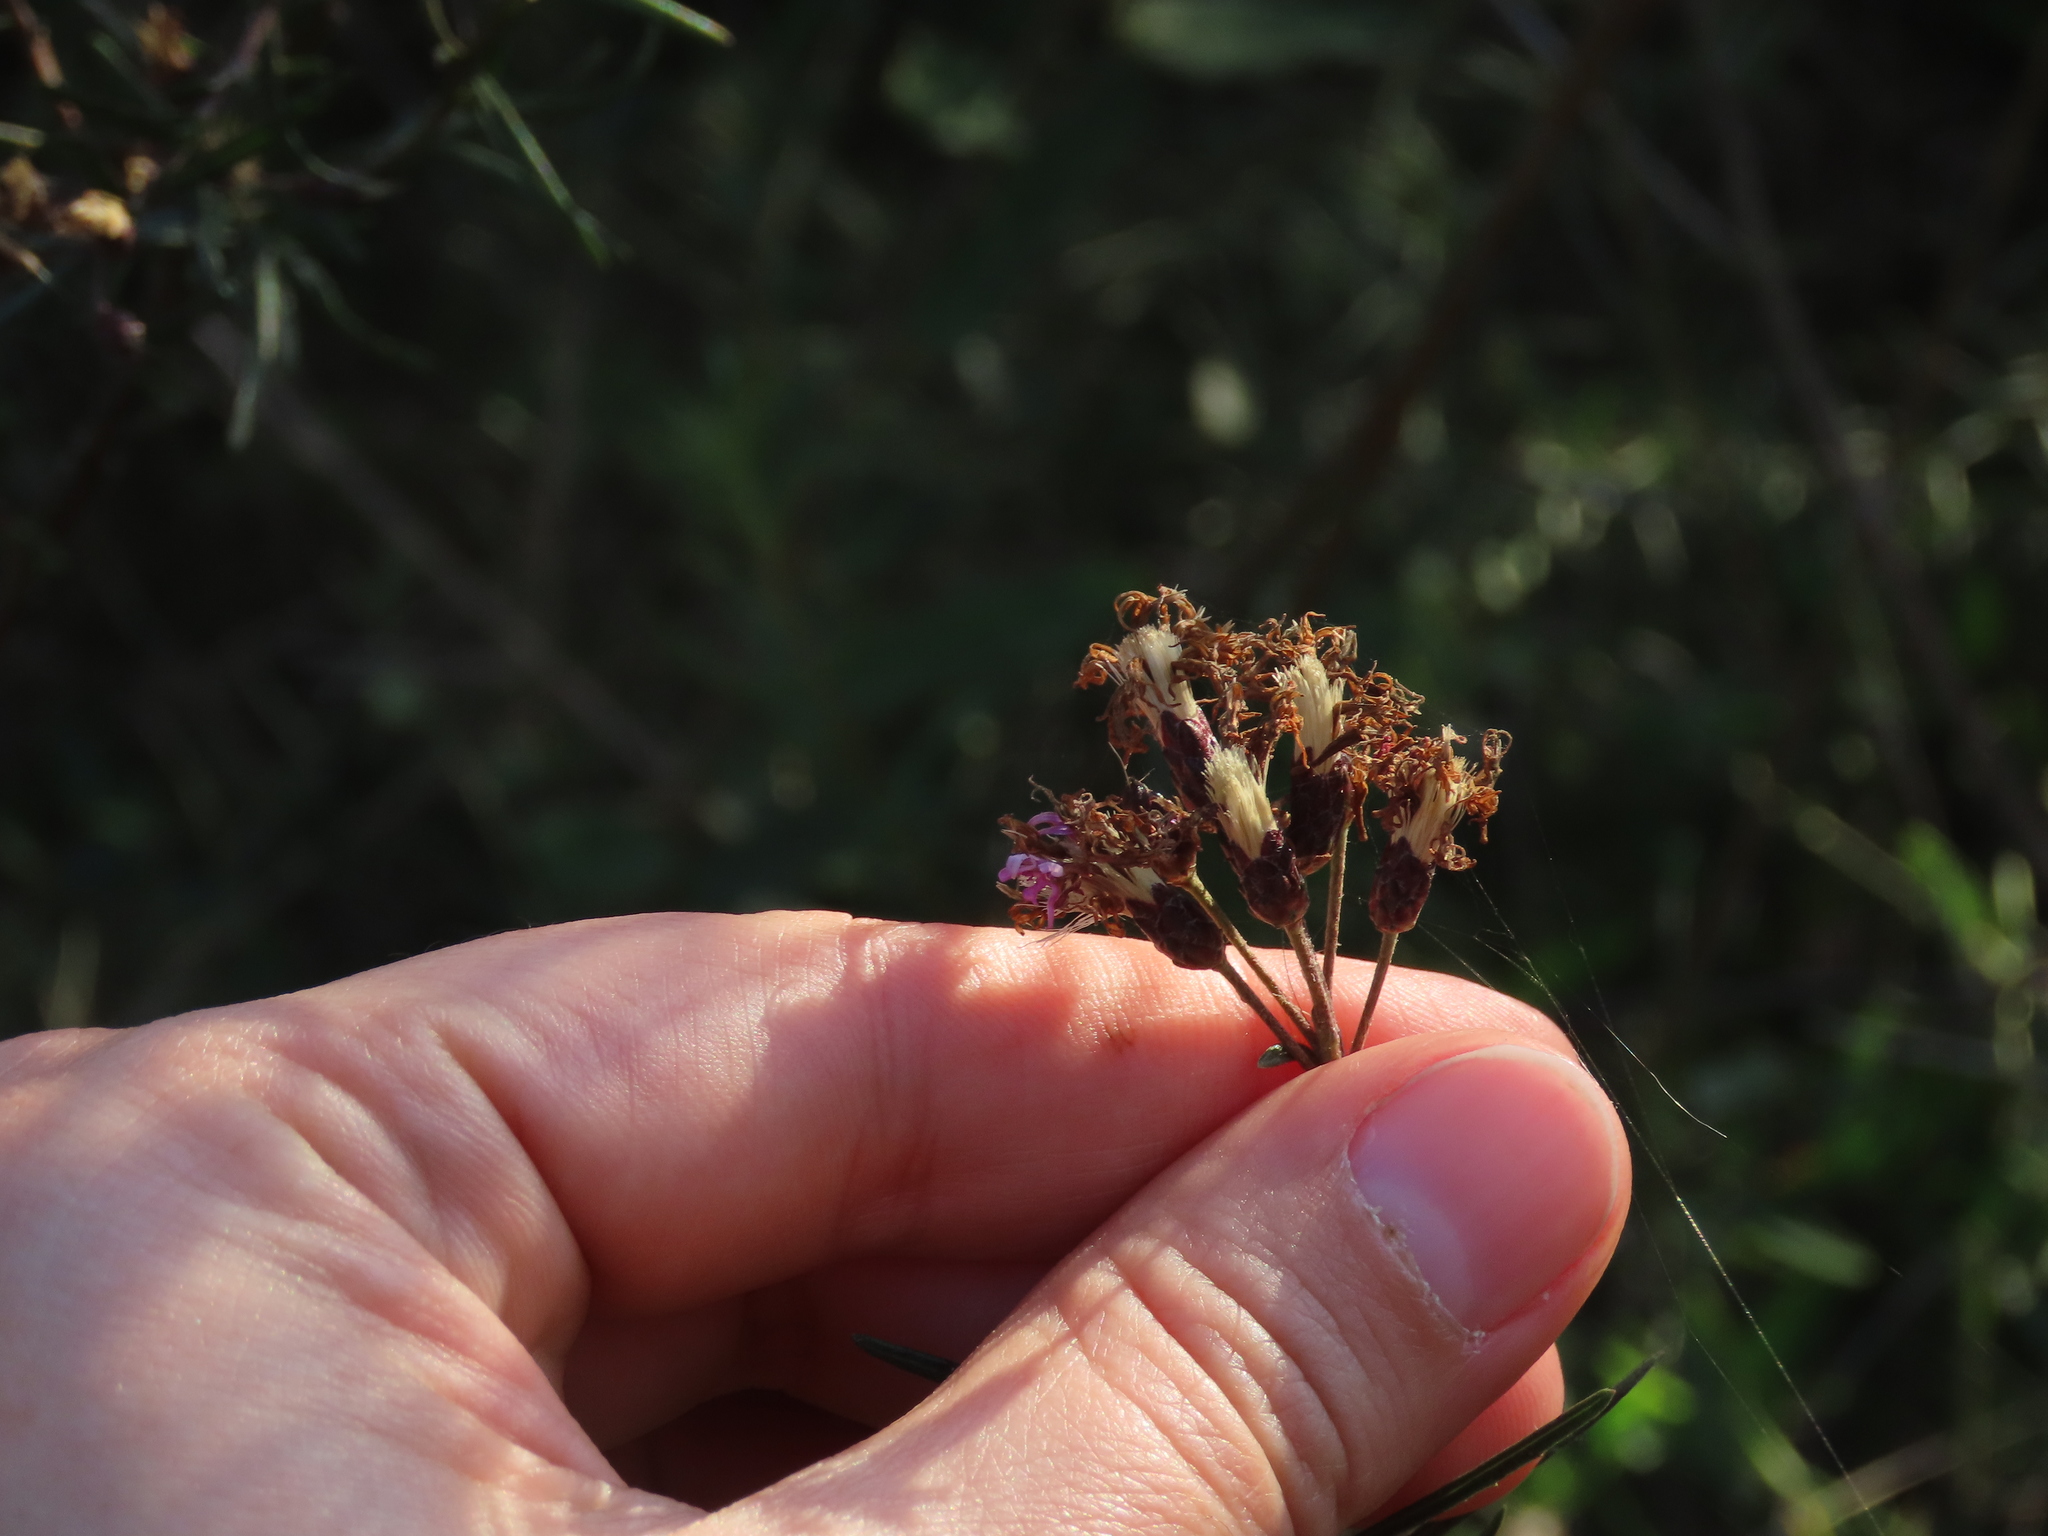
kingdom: Plantae
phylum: Tracheophyta
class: Magnoliopsida
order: Asterales
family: Asteraceae
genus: Vernonanthura
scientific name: Vernonanthura nudiflora
